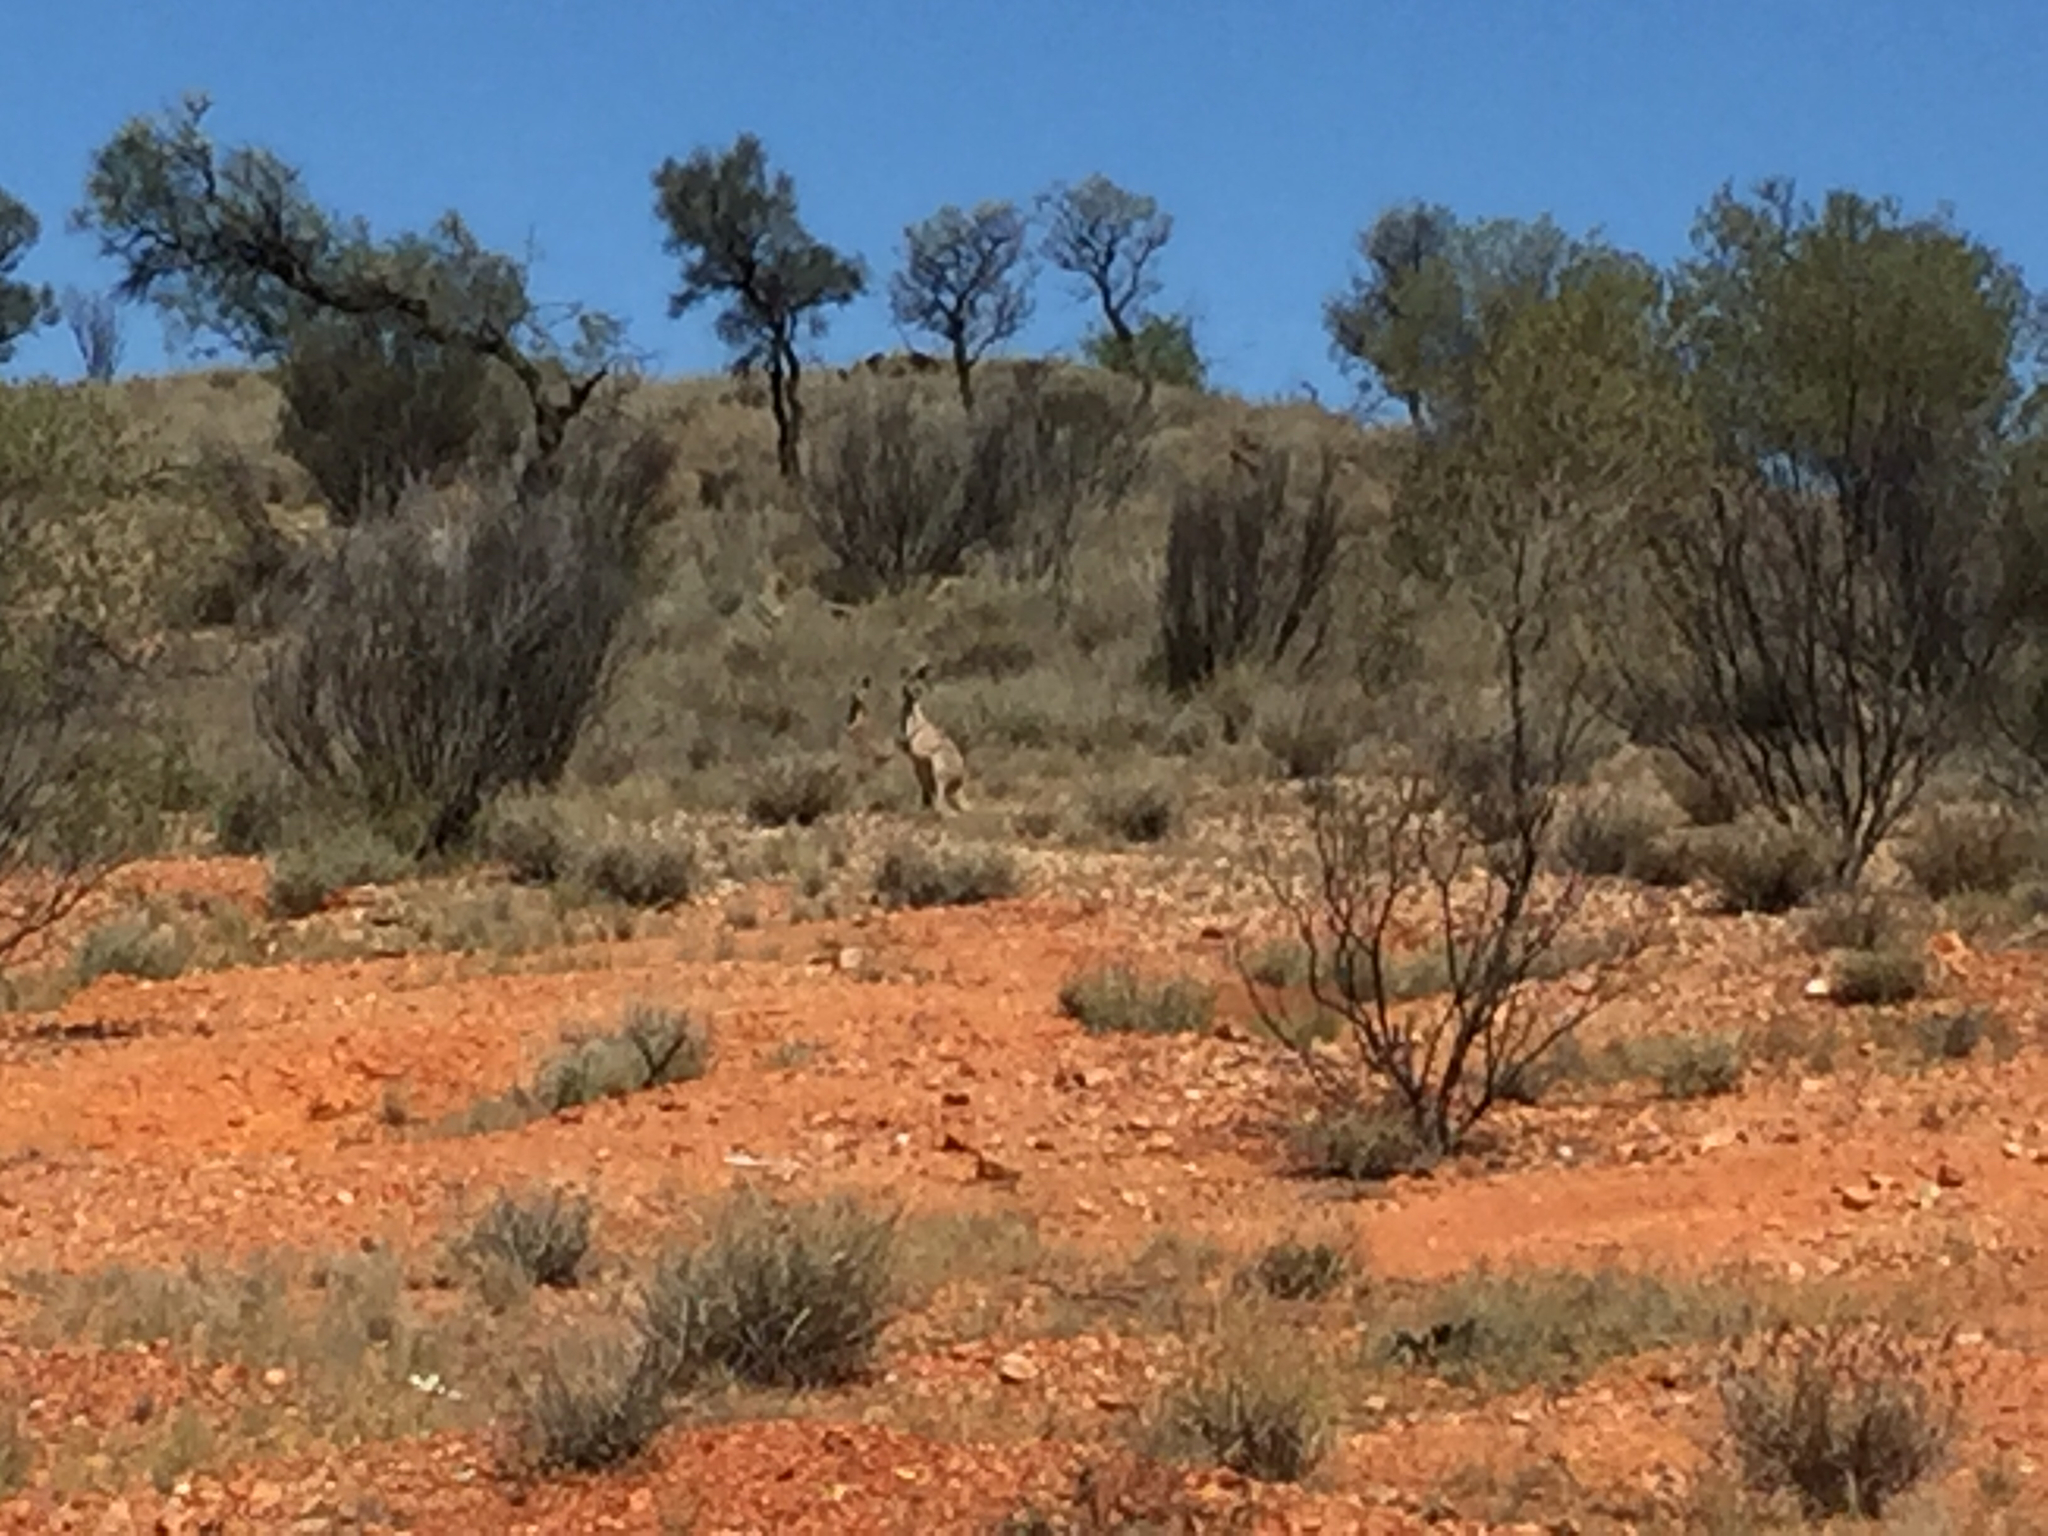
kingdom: Animalia
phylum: Chordata
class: Mammalia
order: Diprotodontia
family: Macropodidae
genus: Macropus
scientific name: Macropus robustus
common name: Eastern wallaroo
